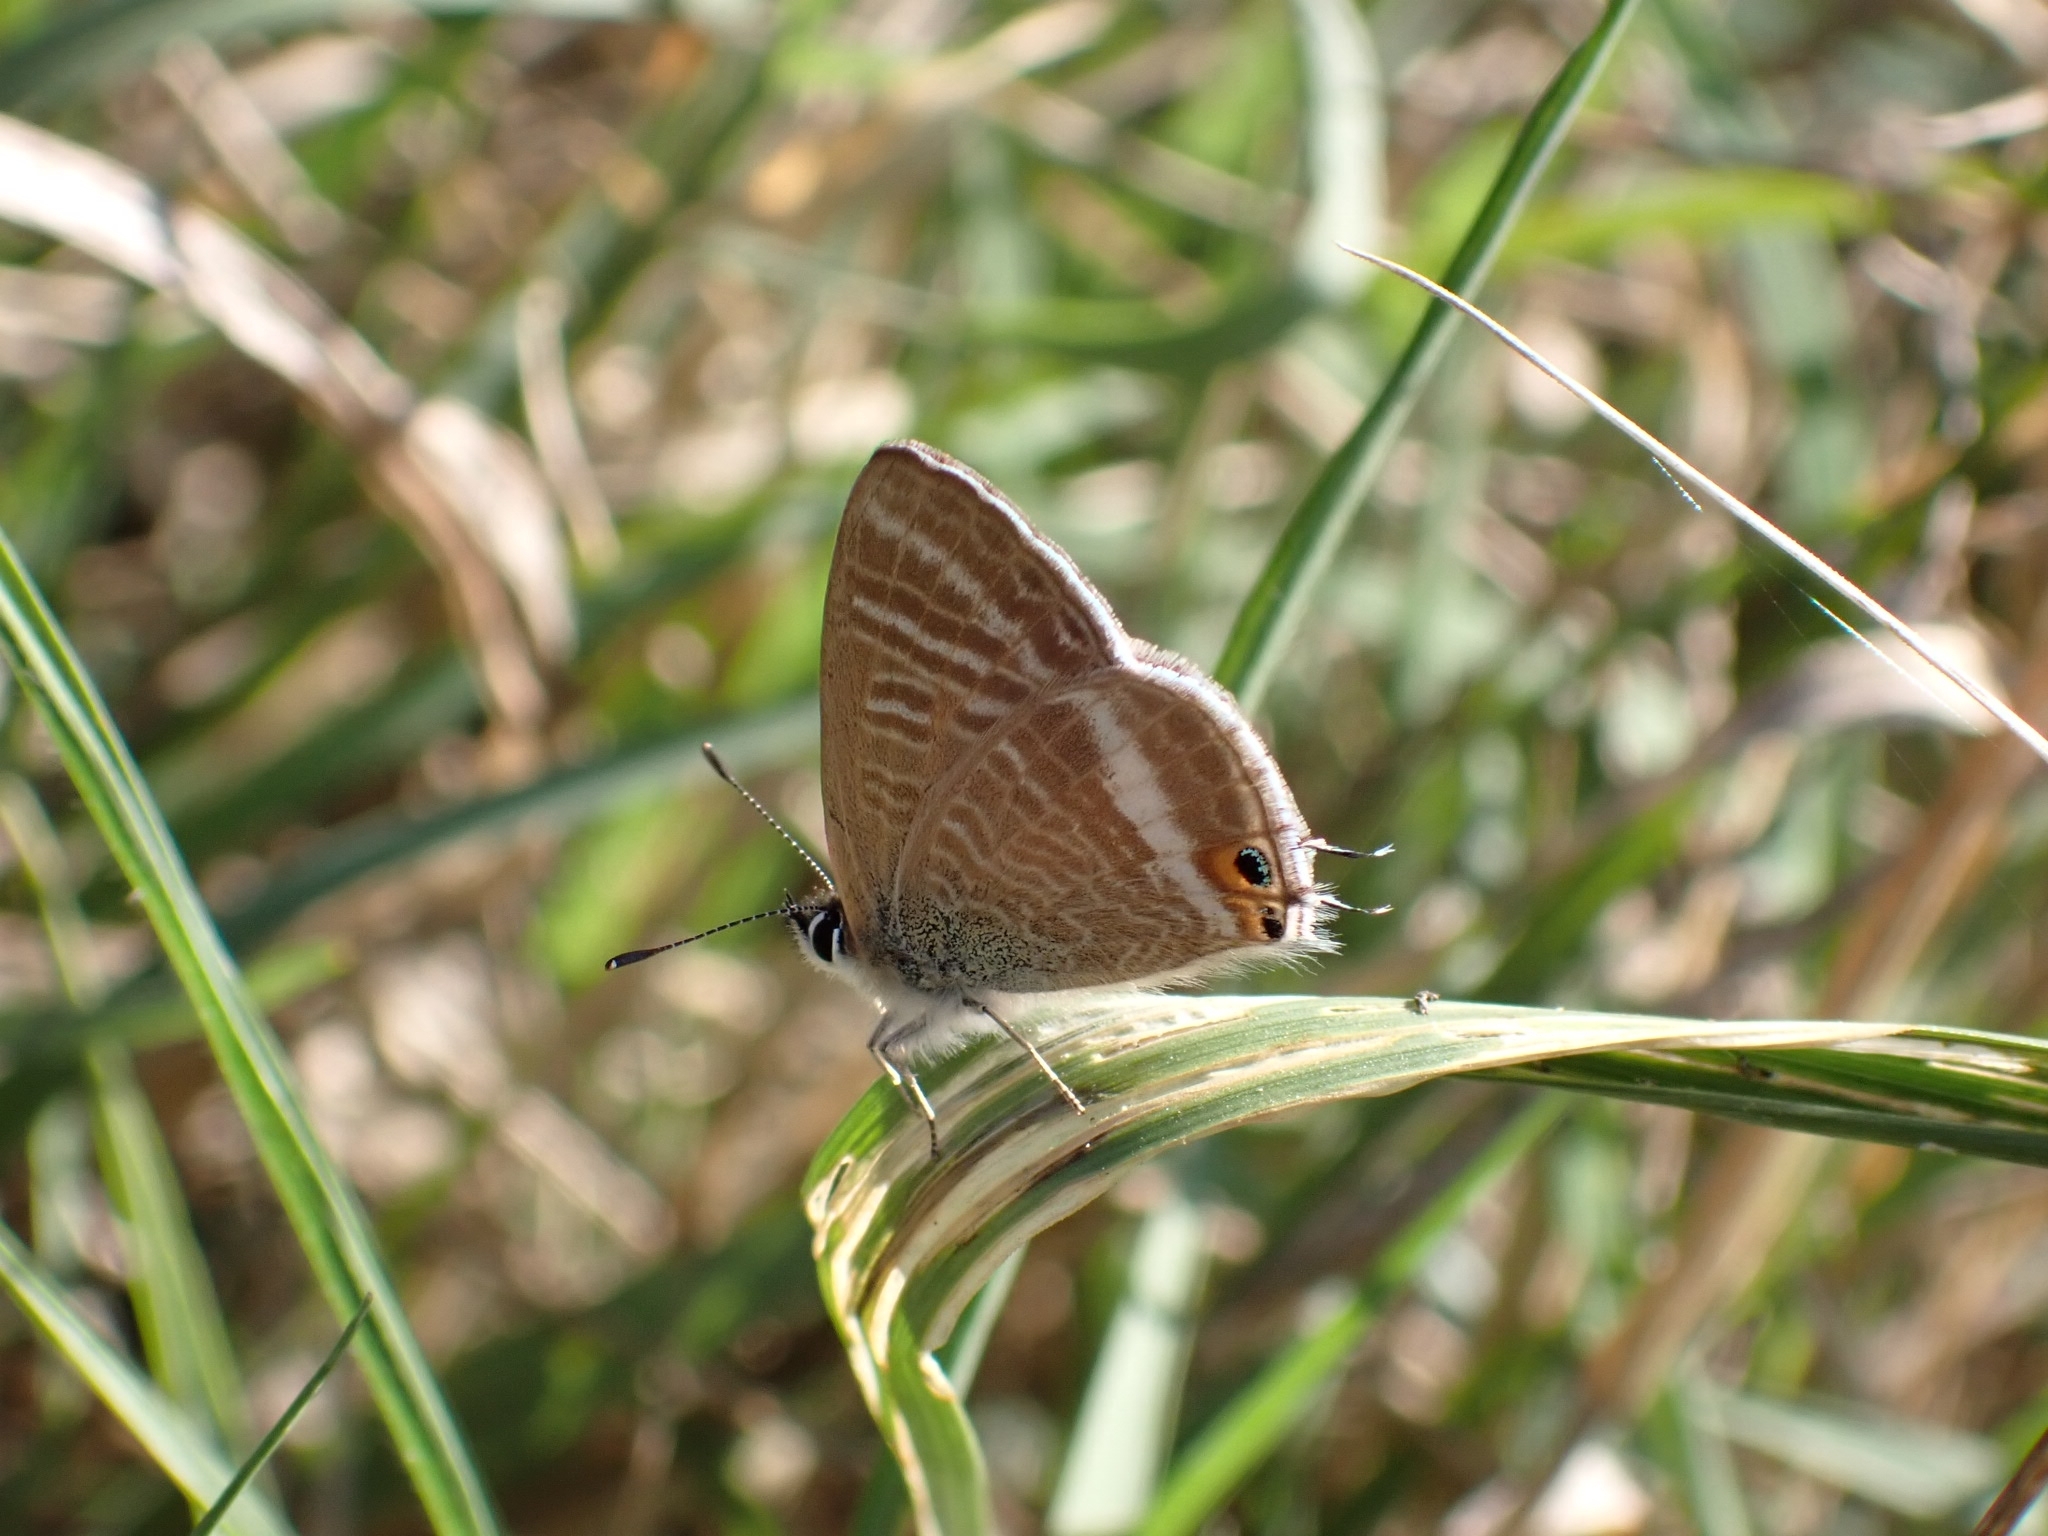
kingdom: Animalia
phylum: Arthropoda
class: Insecta
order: Lepidoptera
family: Lycaenidae
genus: Lampides
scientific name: Lampides boeticus
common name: Long-tailed blue
